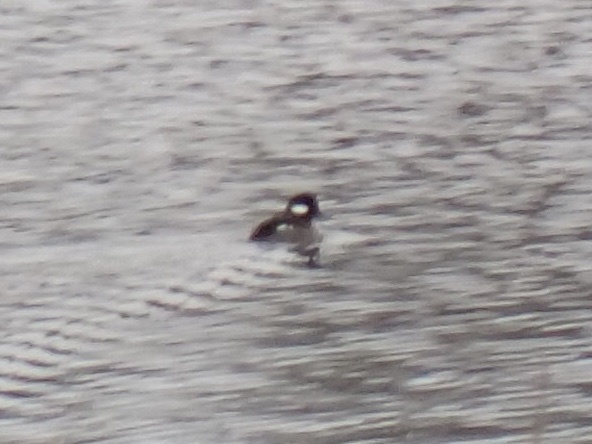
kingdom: Animalia
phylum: Chordata
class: Aves
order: Anseriformes
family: Anatidae
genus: Bucephala
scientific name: Bucephala albeola
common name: Bufflehead
